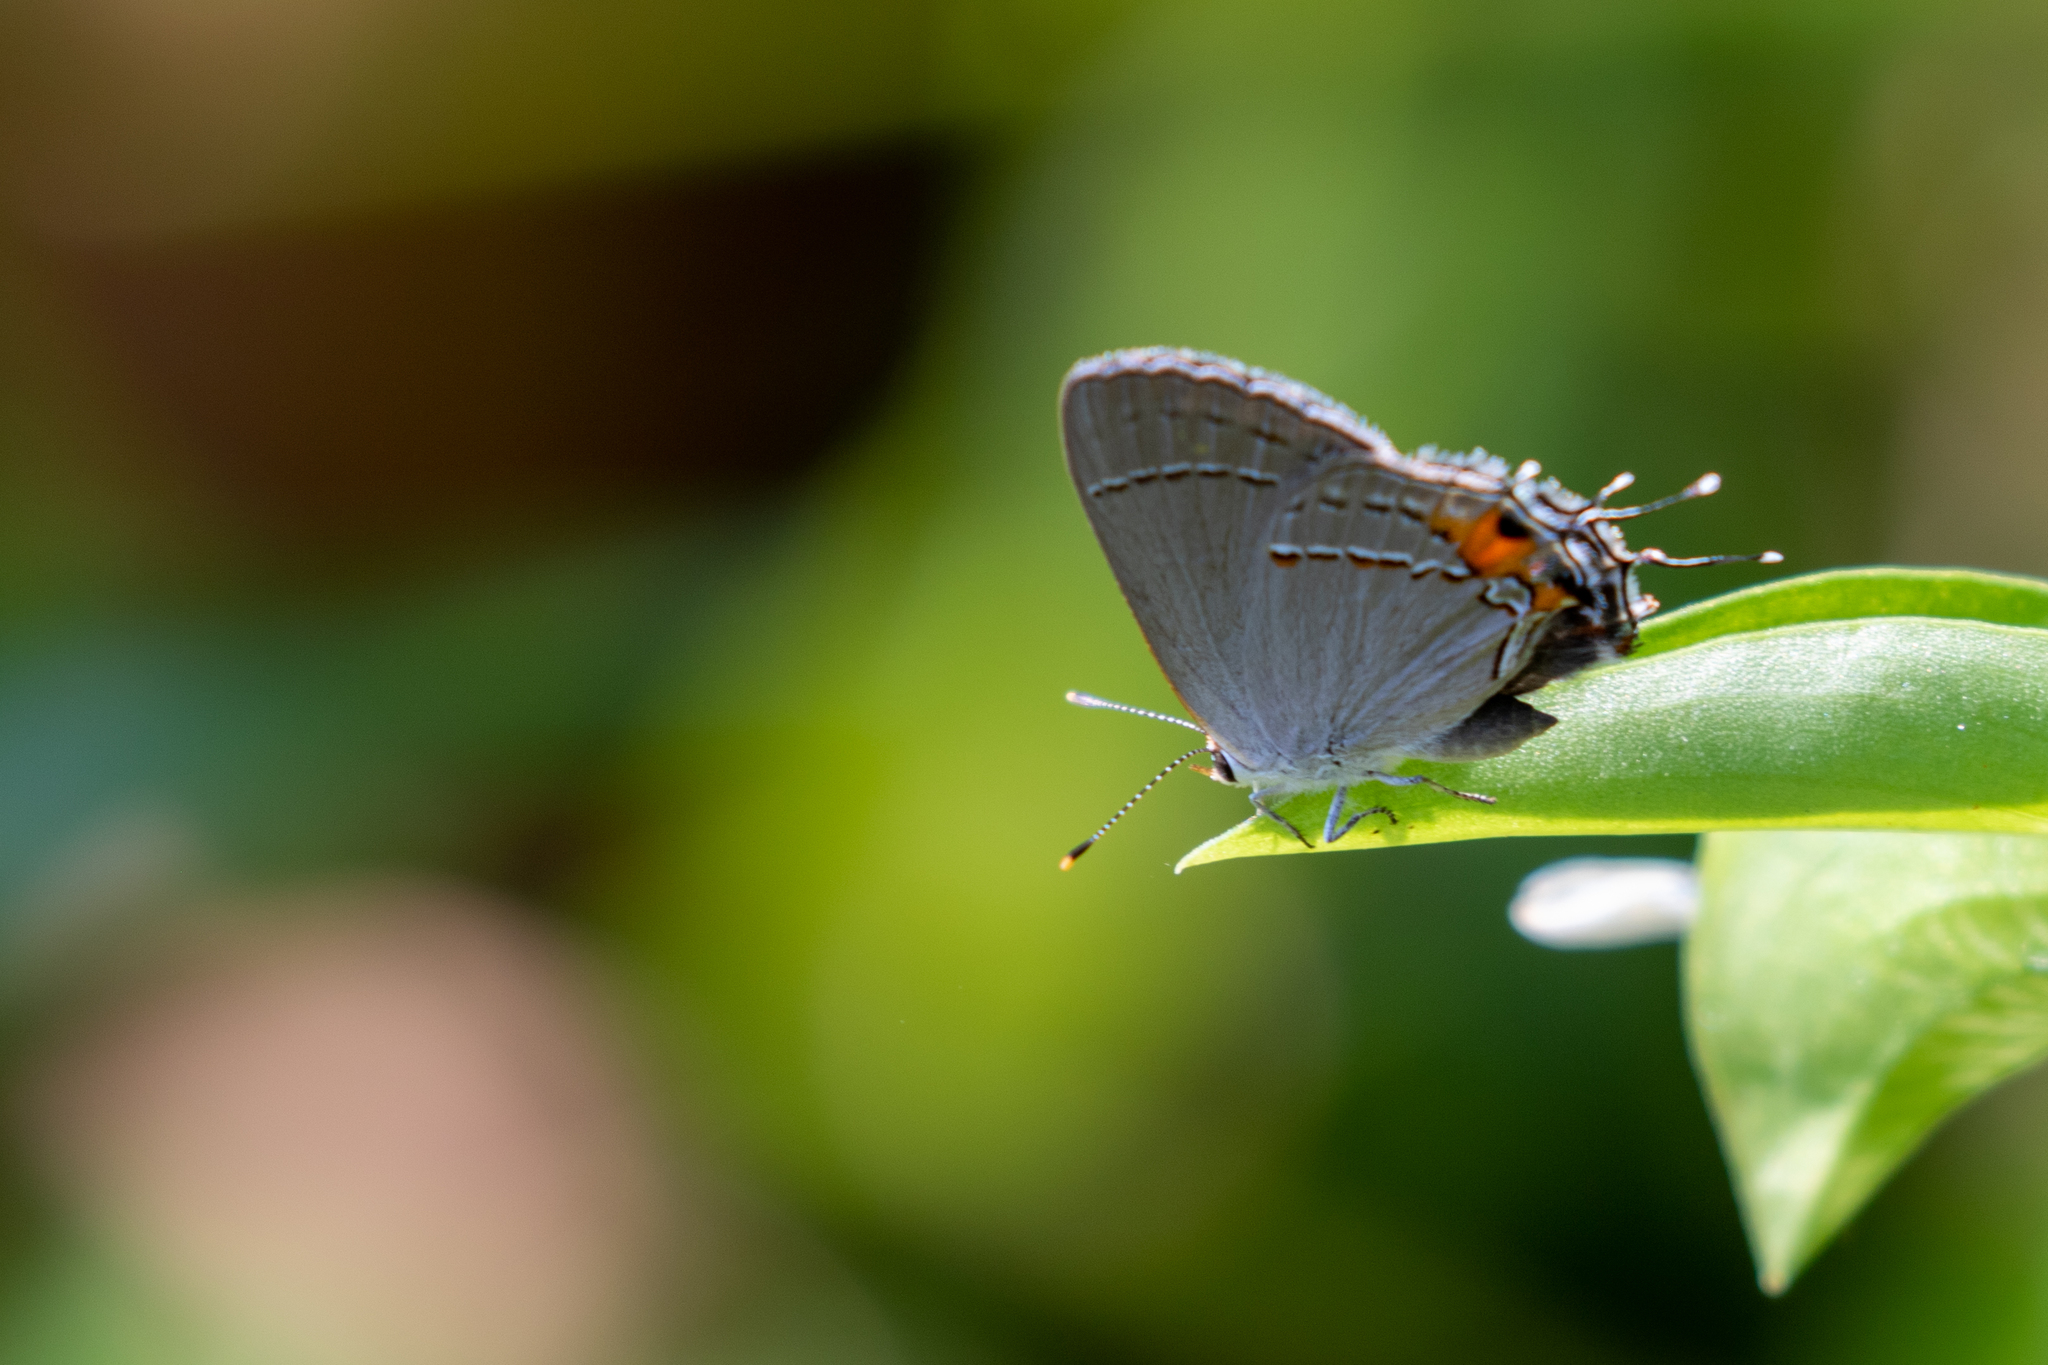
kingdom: Animalia
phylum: Arthropoda
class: Insecta
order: Lepidoptera
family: Lycaenidae
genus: Strymon
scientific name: Strymon melinus
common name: Gray hairstreak
